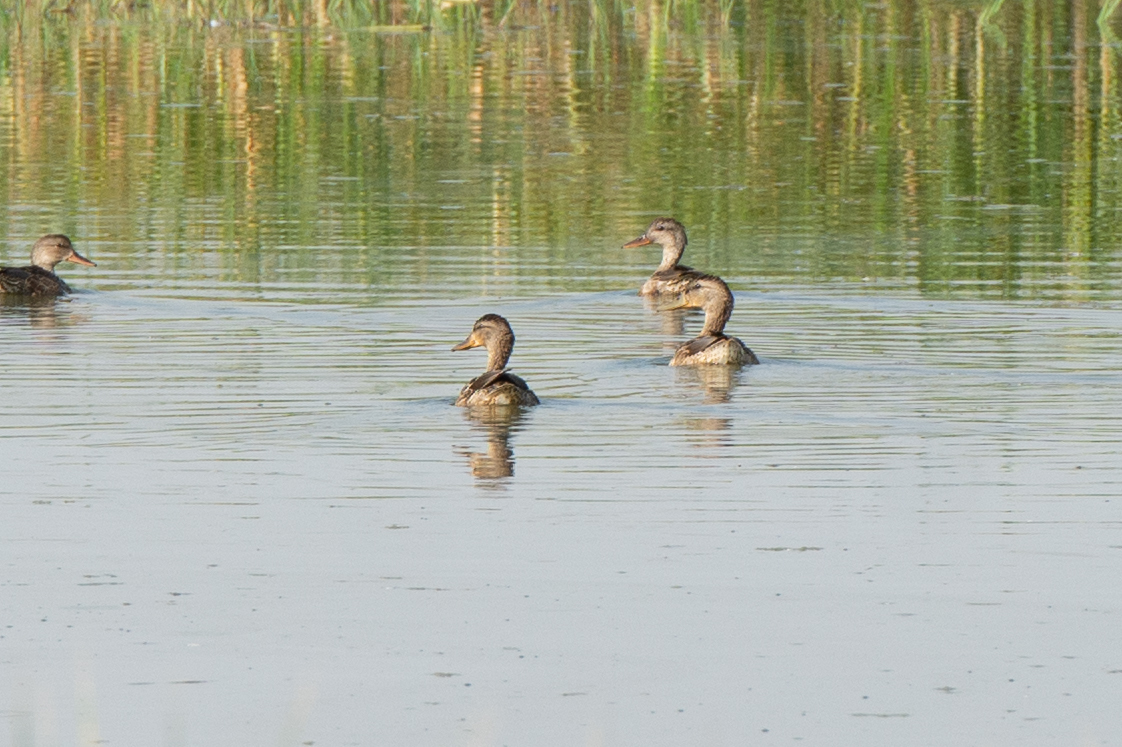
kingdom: Animalia
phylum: Chordata
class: Aves
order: Anseriformes
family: Anatidae
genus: Anas
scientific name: Anas platyrhynchos
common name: Mallard
